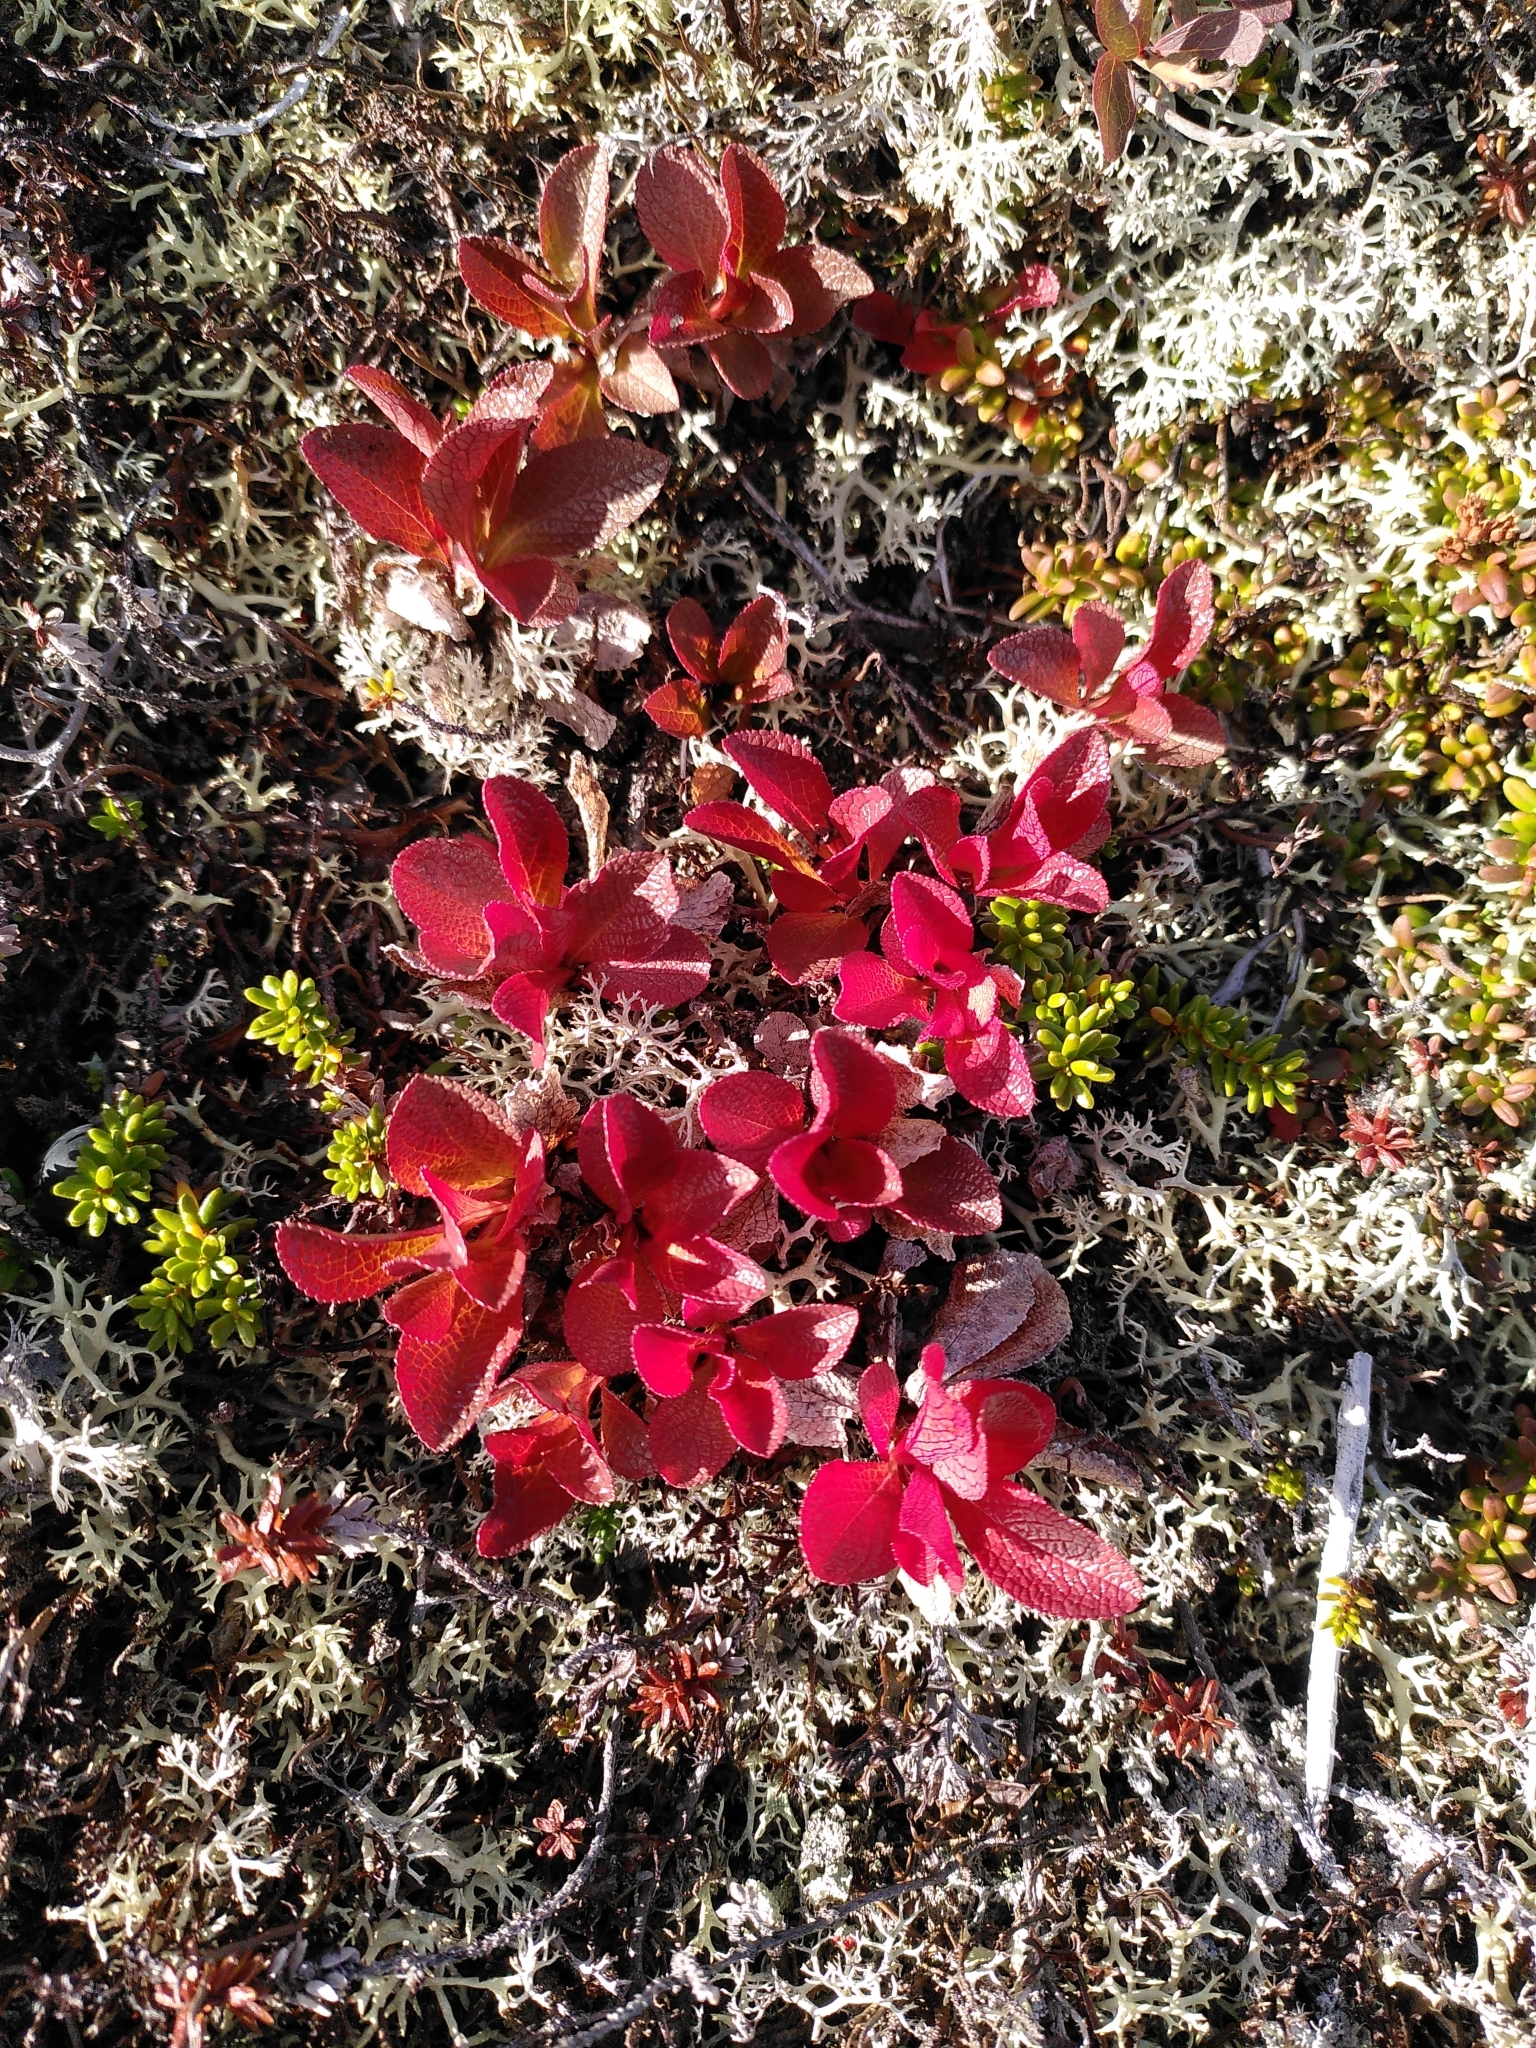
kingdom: Plantae
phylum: Tracheophyta
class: Magnoliopsida
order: Ericales
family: Ericaceae
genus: Arctostaphylos
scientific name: Arctostaphylos alpinus
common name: Alpine bearberry
